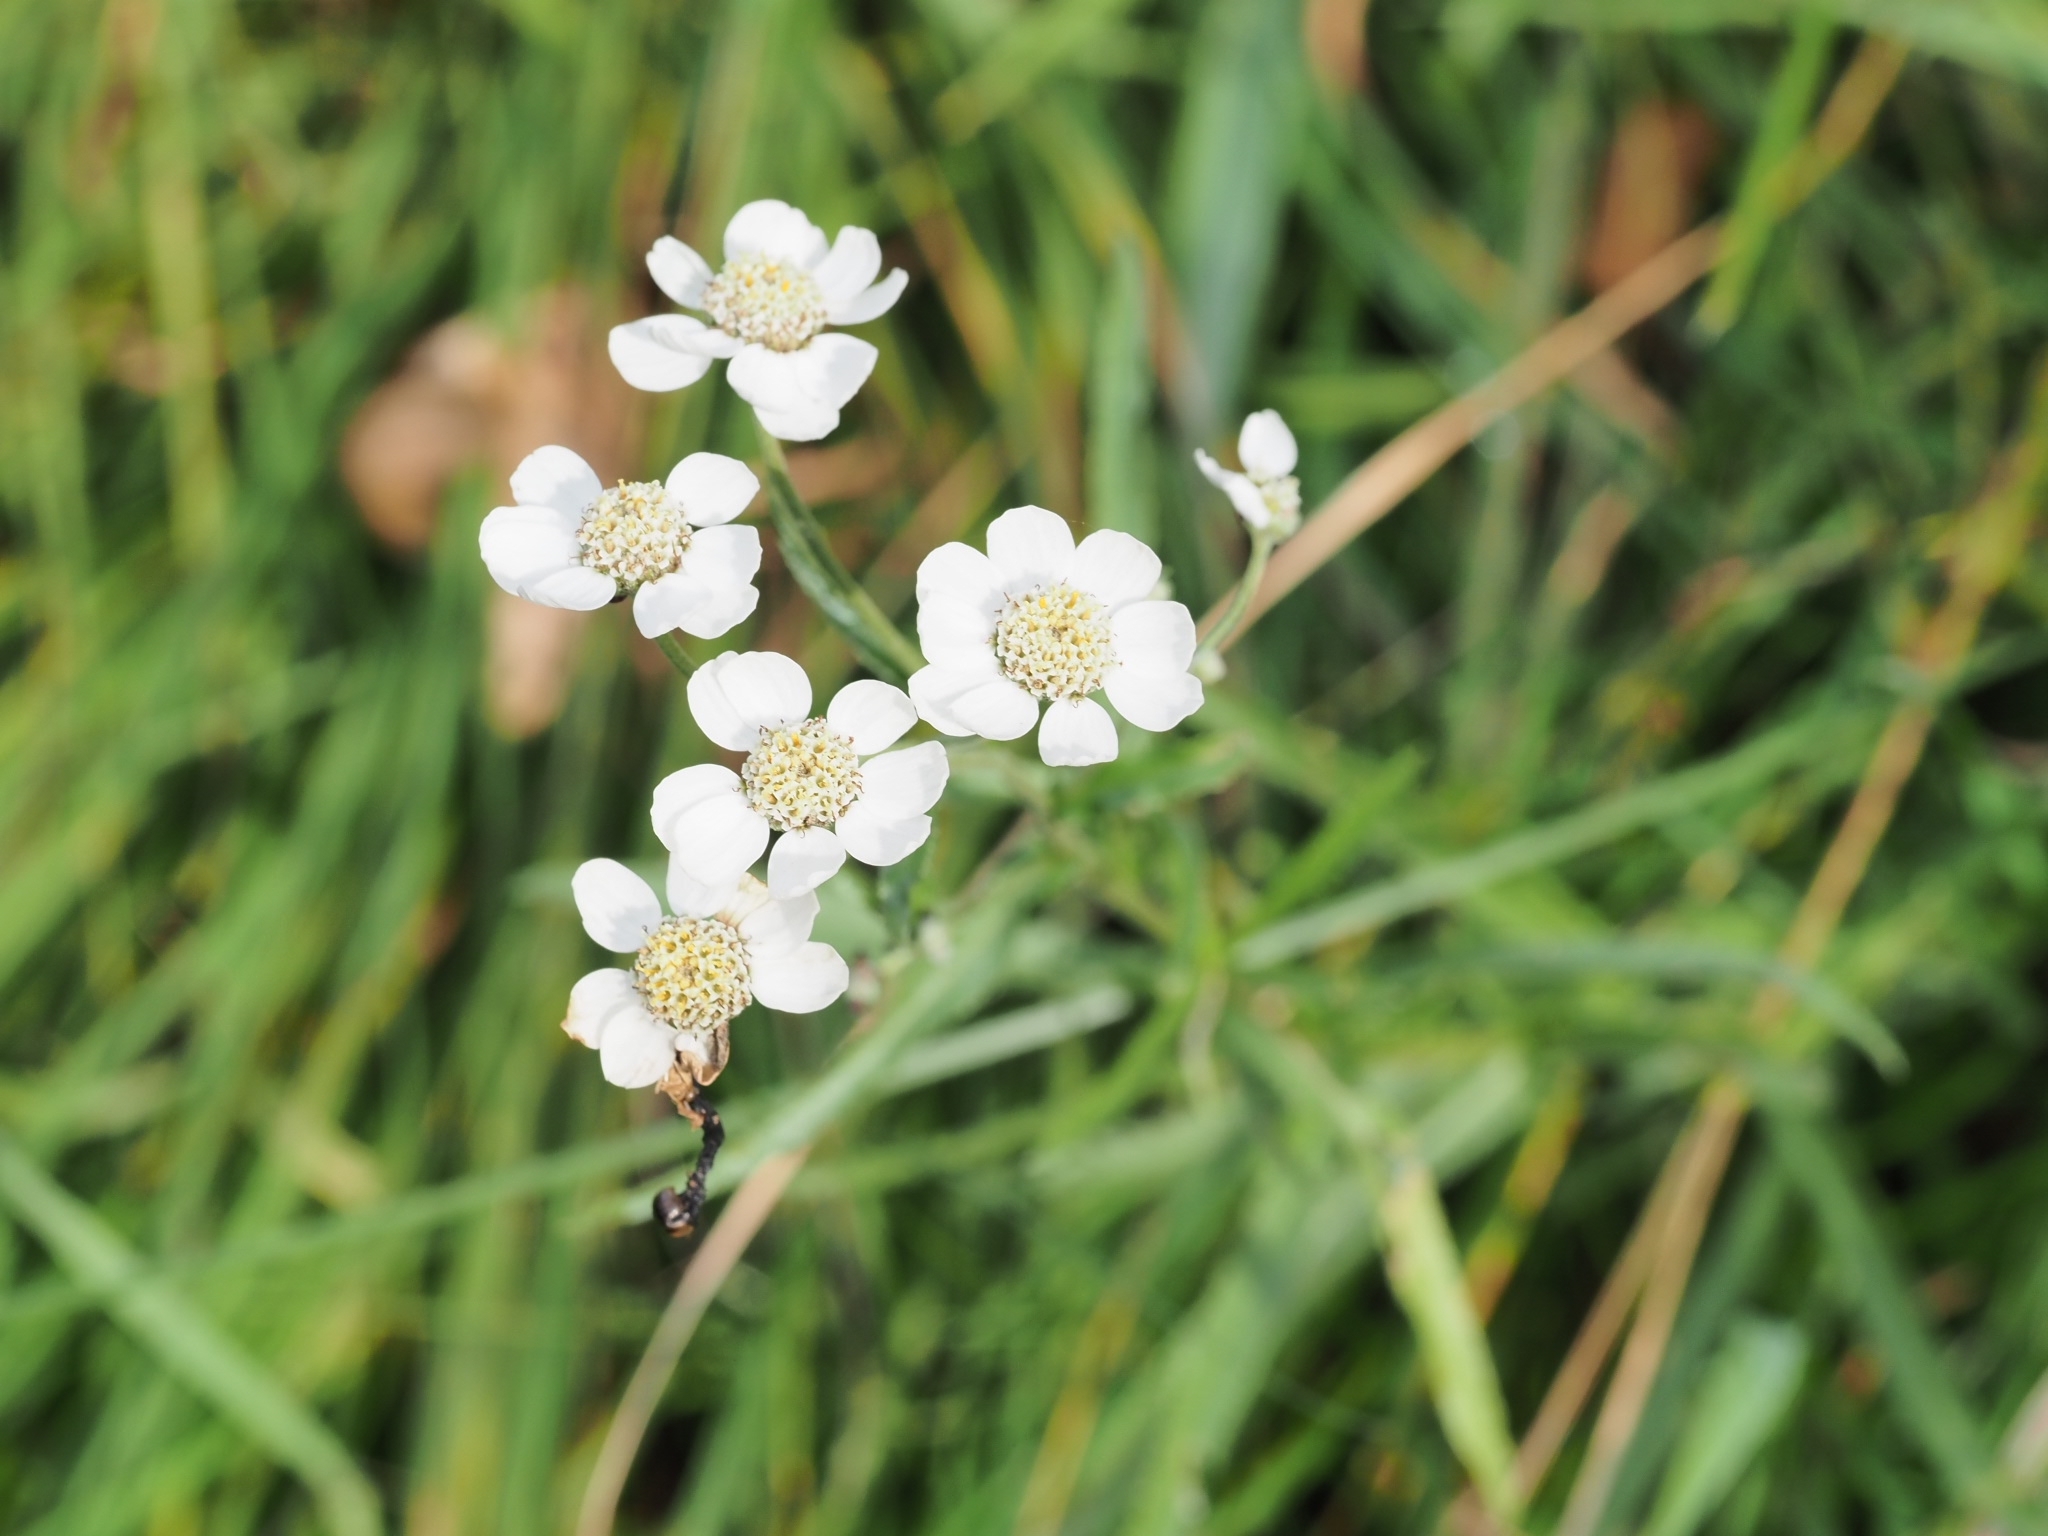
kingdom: Plantae
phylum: Tracheophyta
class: Magnoliopsida
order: Asterales
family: Asteraceae
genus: Achillea
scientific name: Achillea ptarmica
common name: Sneezeweed
